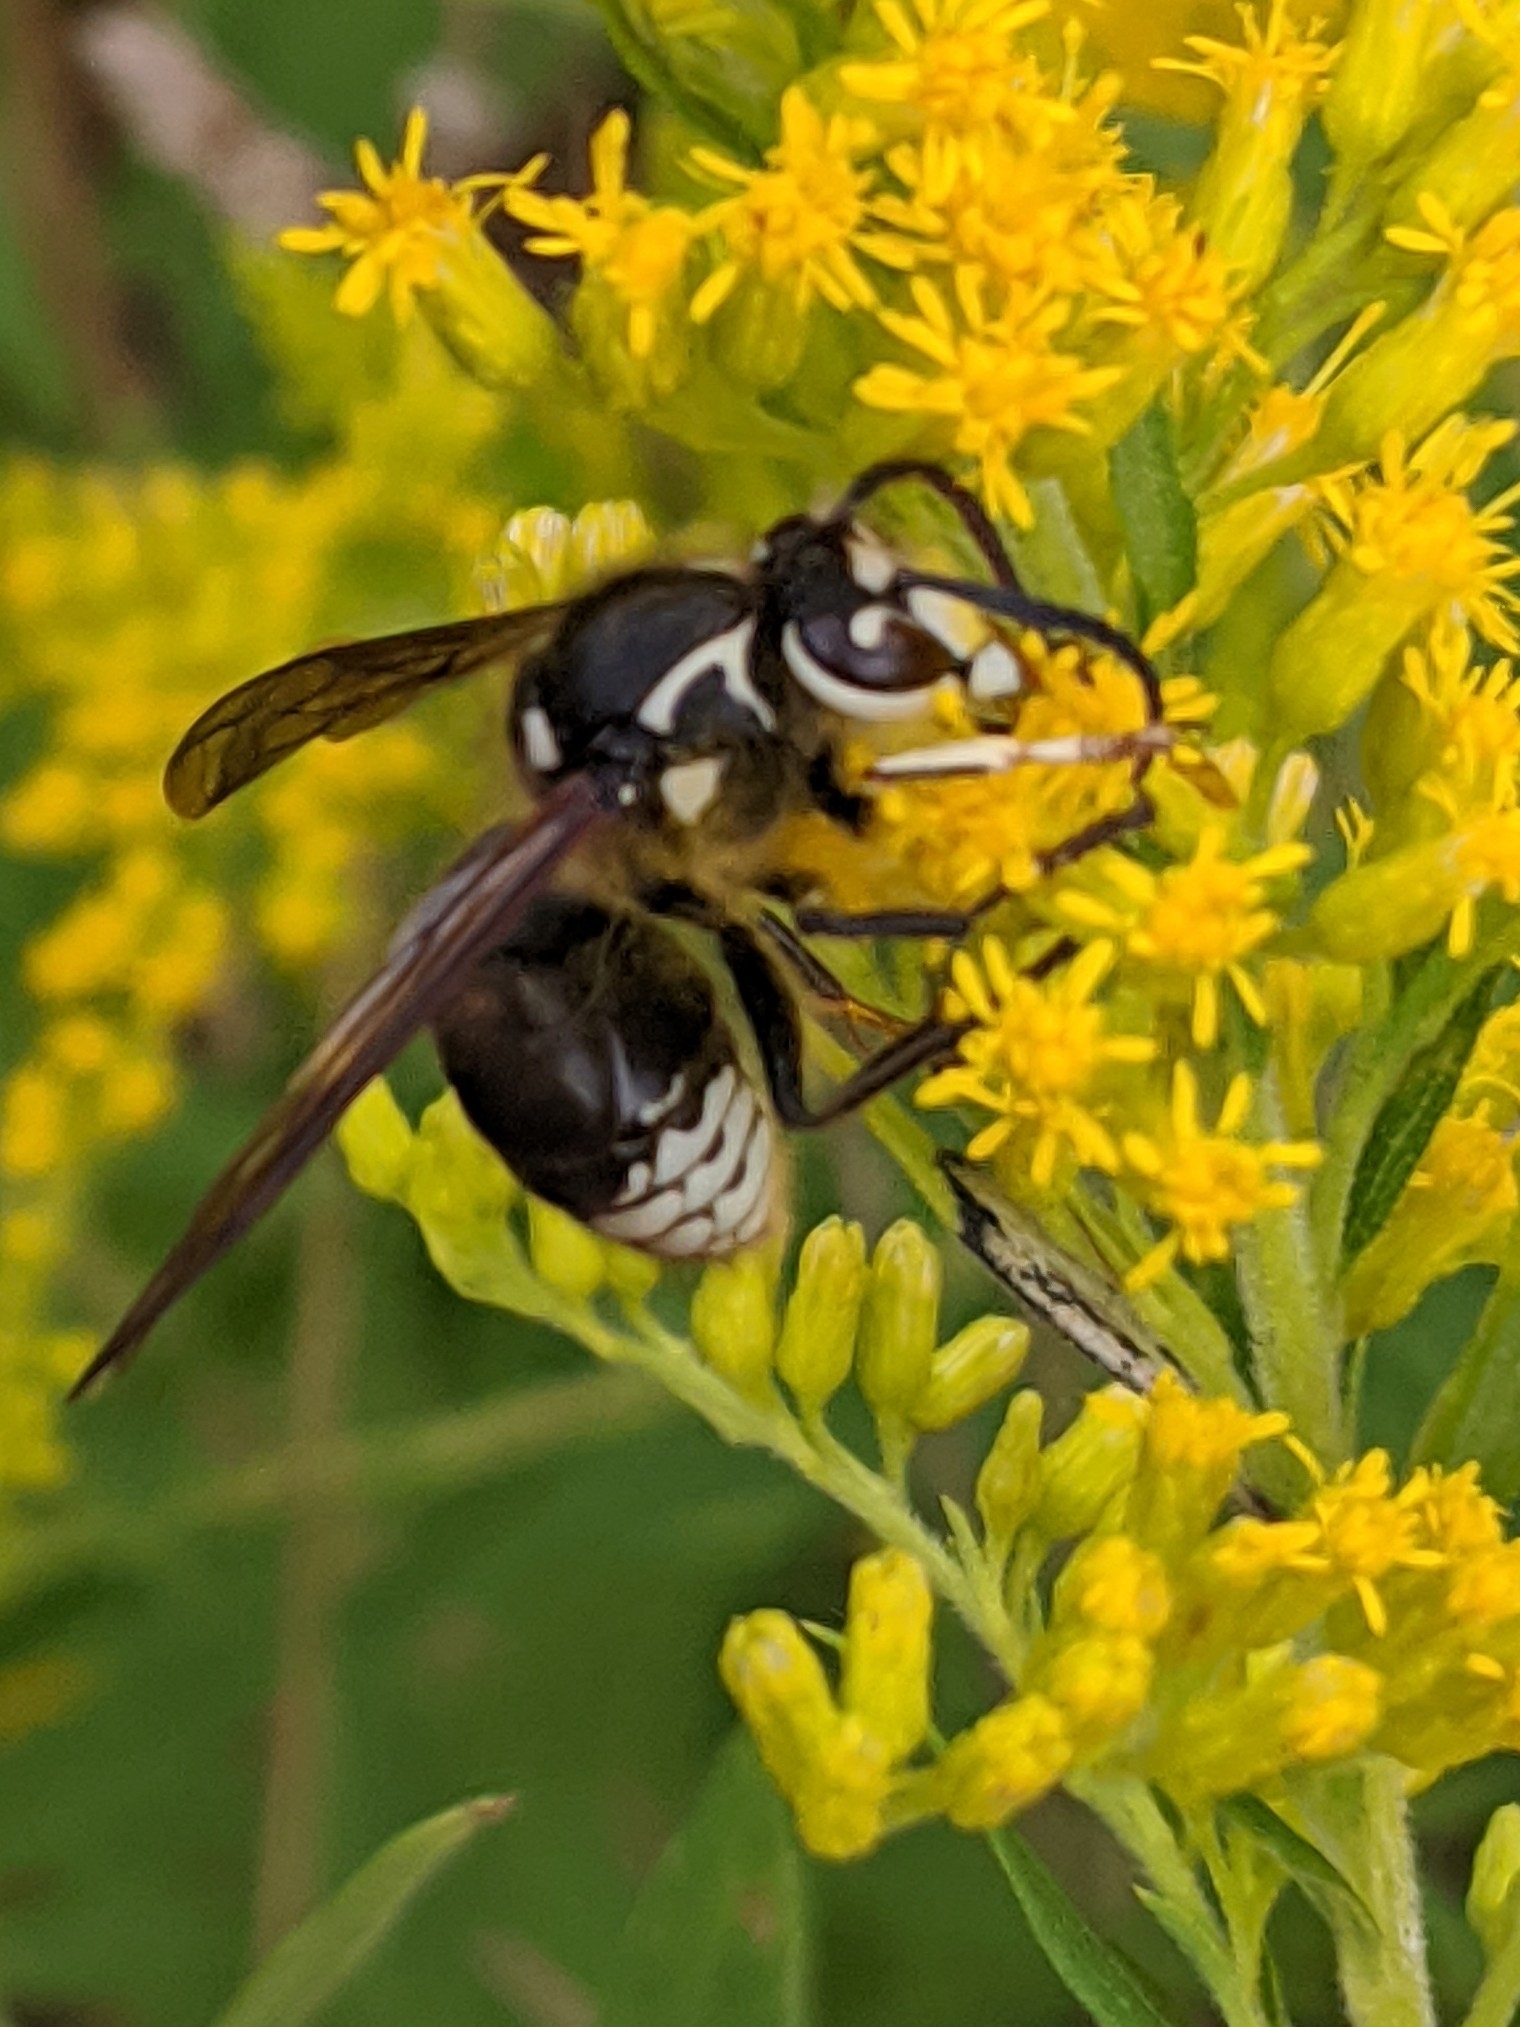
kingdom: Animalia
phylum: Arthropoda
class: Insecta
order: Hymenoptera
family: Vespidae
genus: Dolichovespula
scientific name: Dolichovespula maculata
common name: Bald-faced hornet
